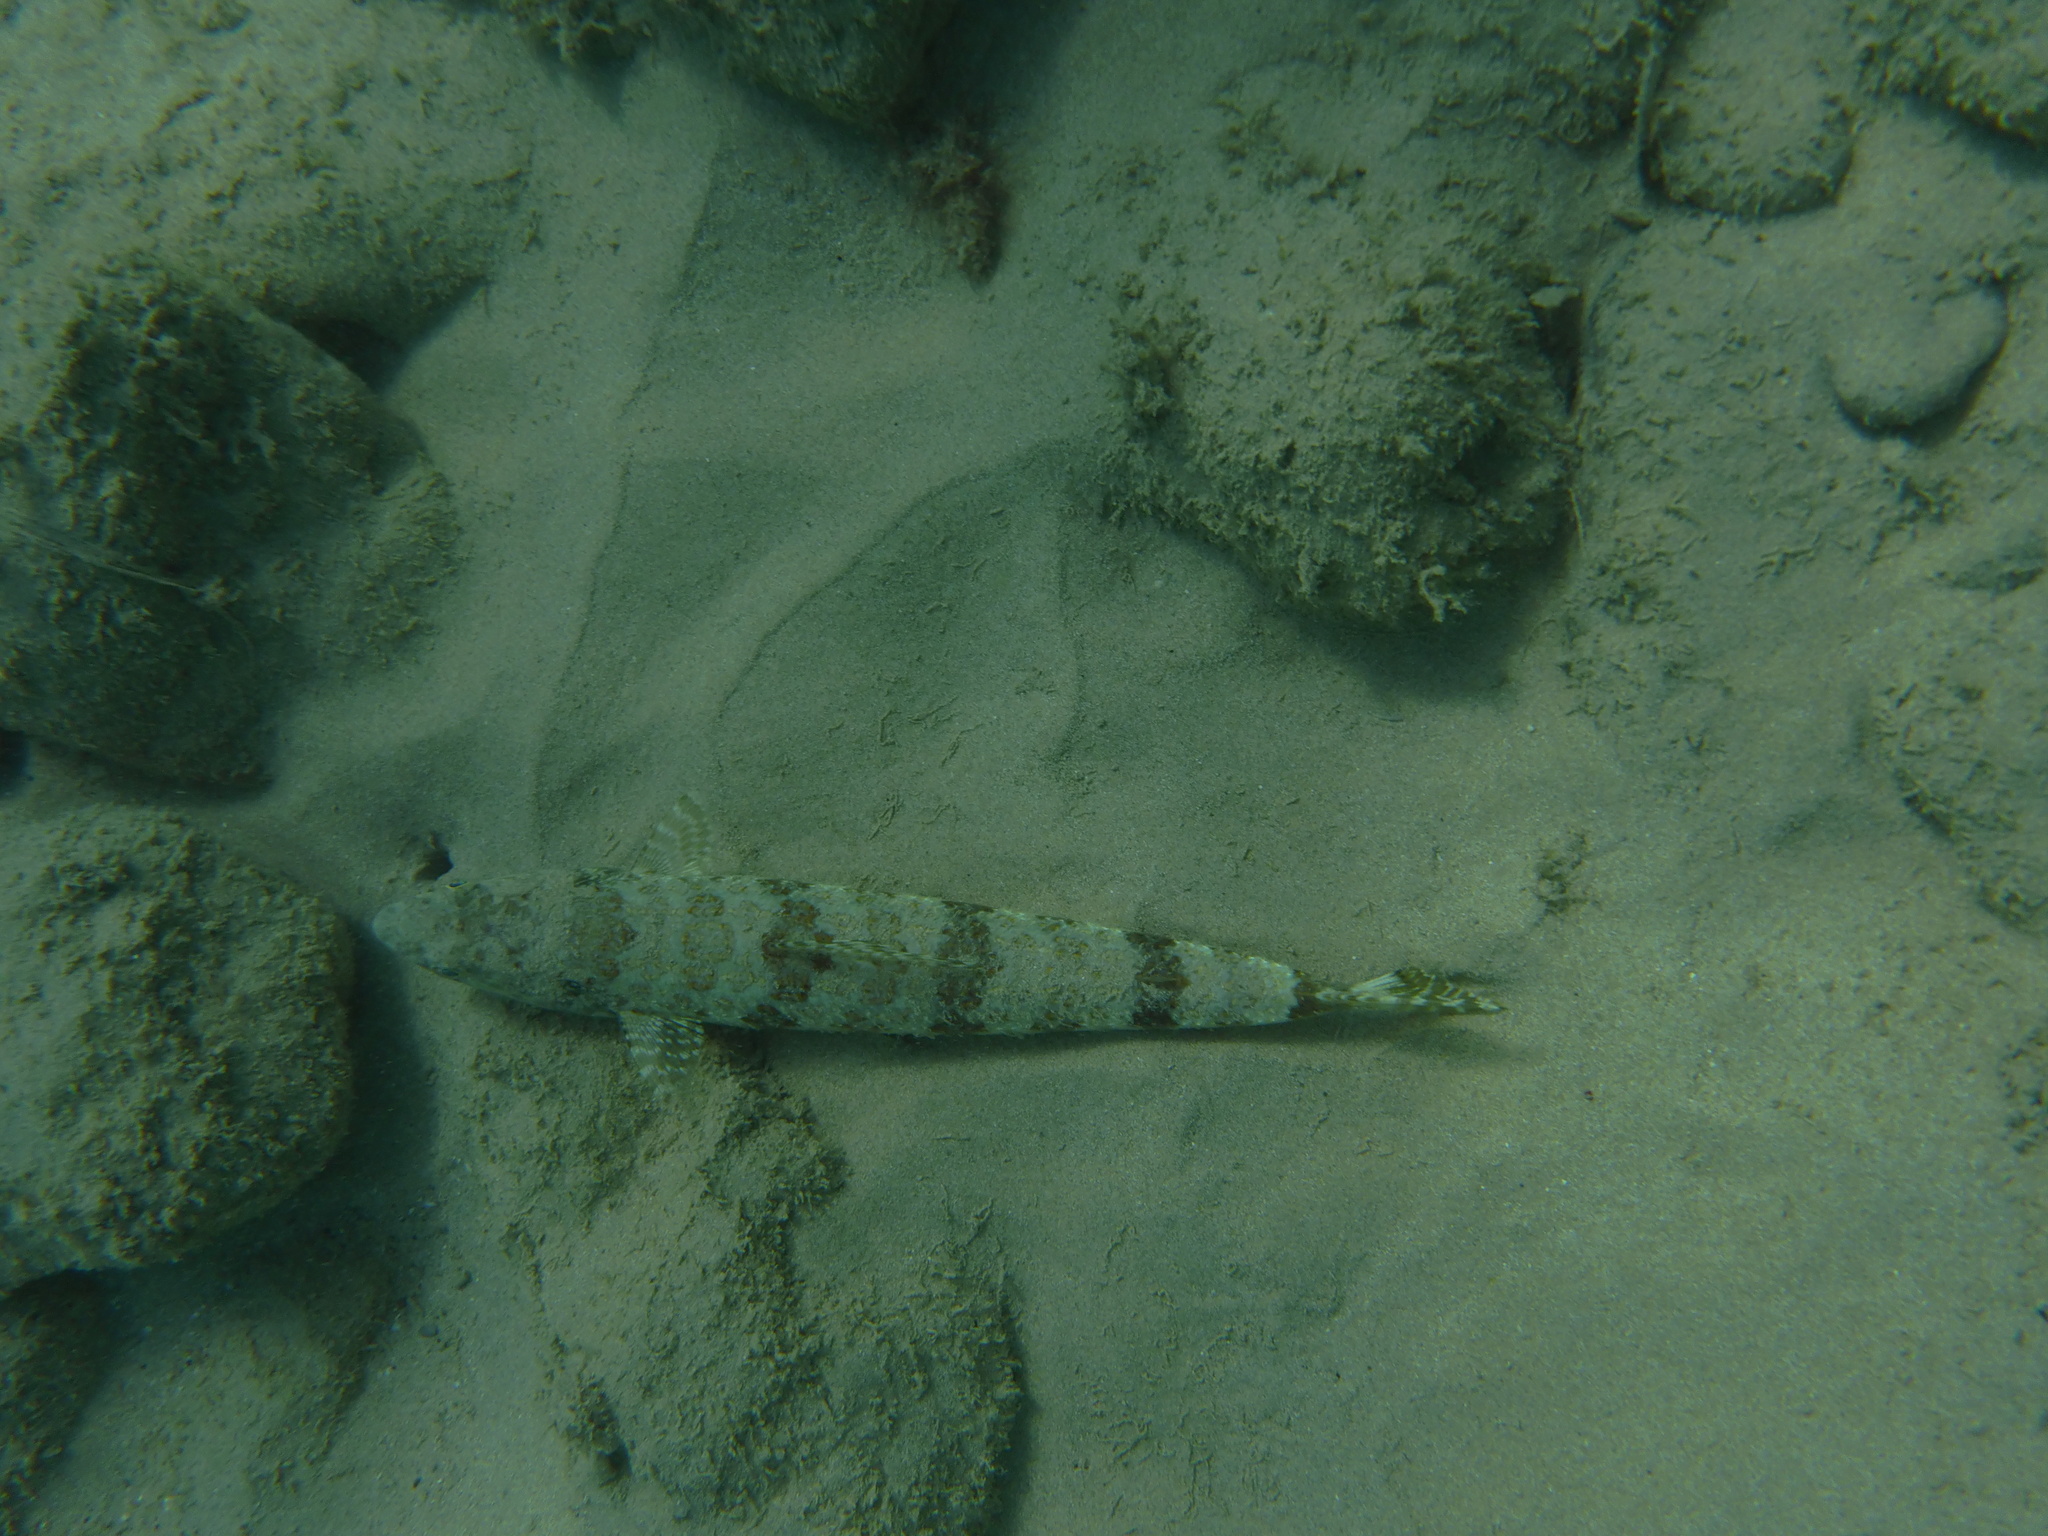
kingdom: Animalia
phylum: Chordata
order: Aulopiformes
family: Synodontidae
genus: Synodus
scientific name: Synodus intermedius
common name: Sand diver
